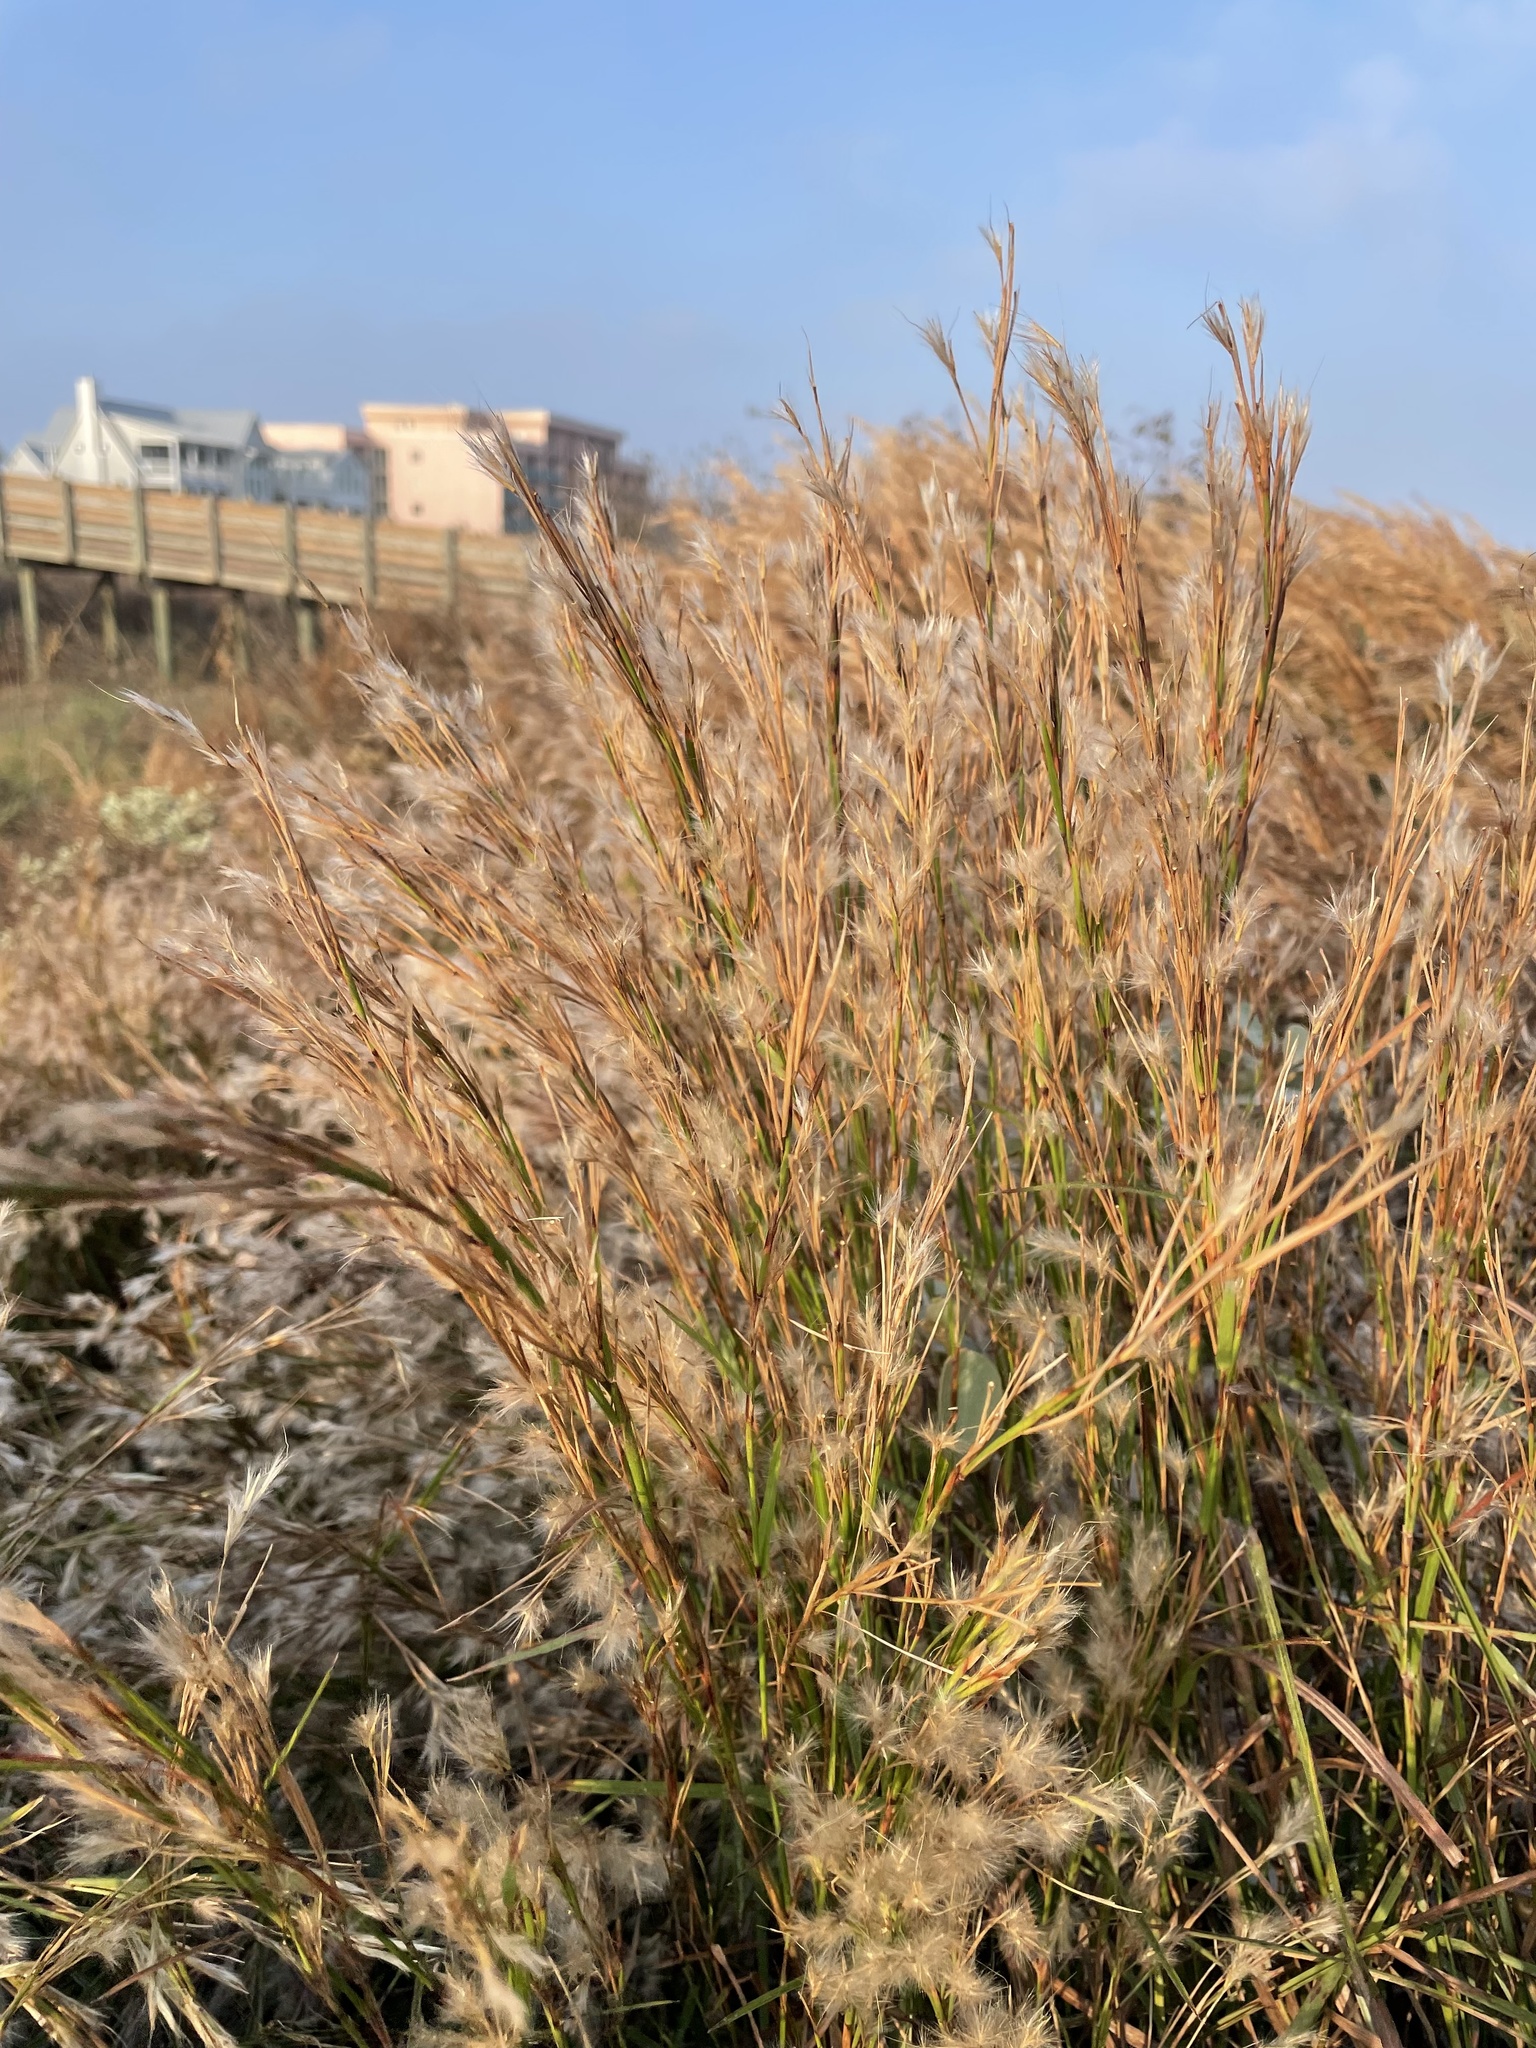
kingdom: Plantae
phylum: Tracheophyta
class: Liliopsida
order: Poales
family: Poaceae
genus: Schizachyrium
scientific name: Schizachyrium scoparium
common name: Little bluestem
